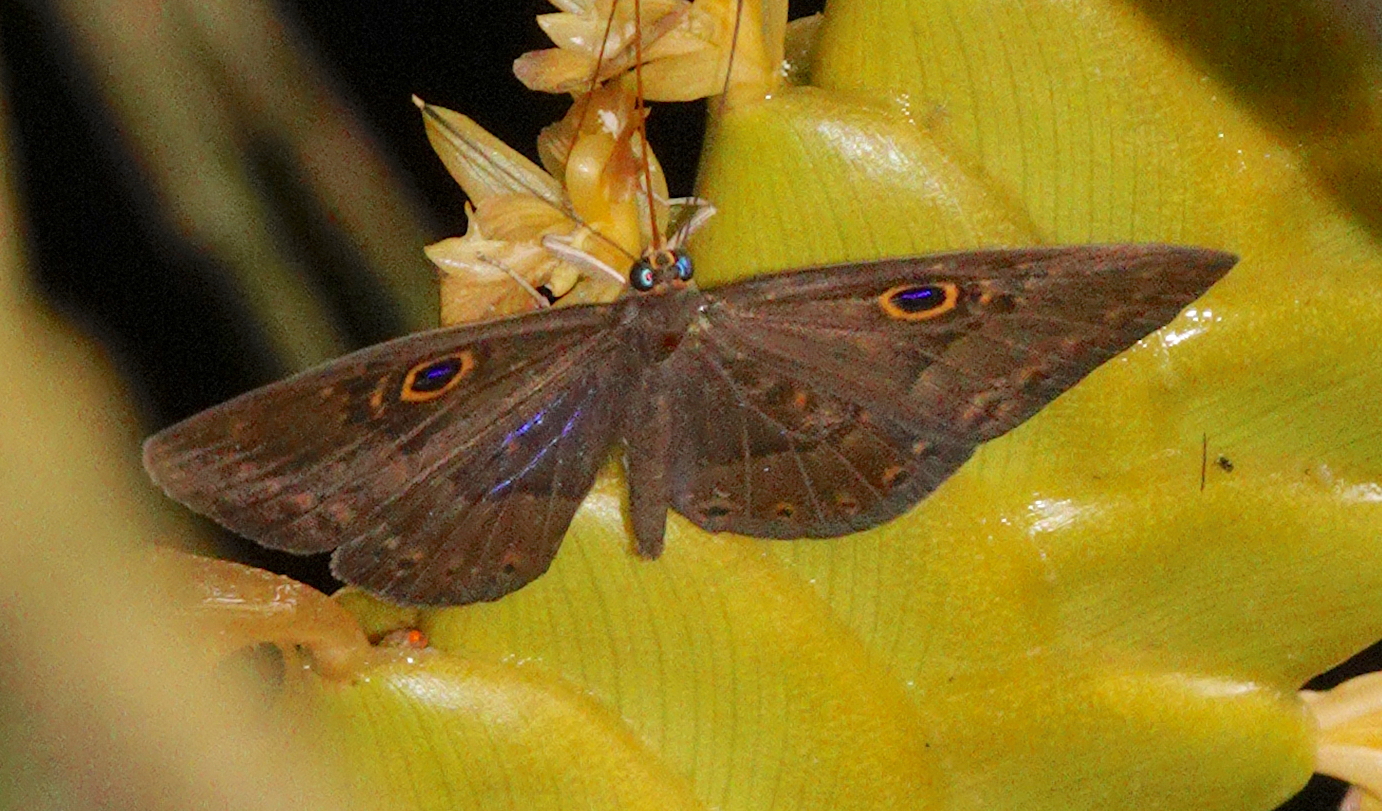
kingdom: Animalia
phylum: Cnidaria
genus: Eurybia
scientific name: Eurybia lycisca
